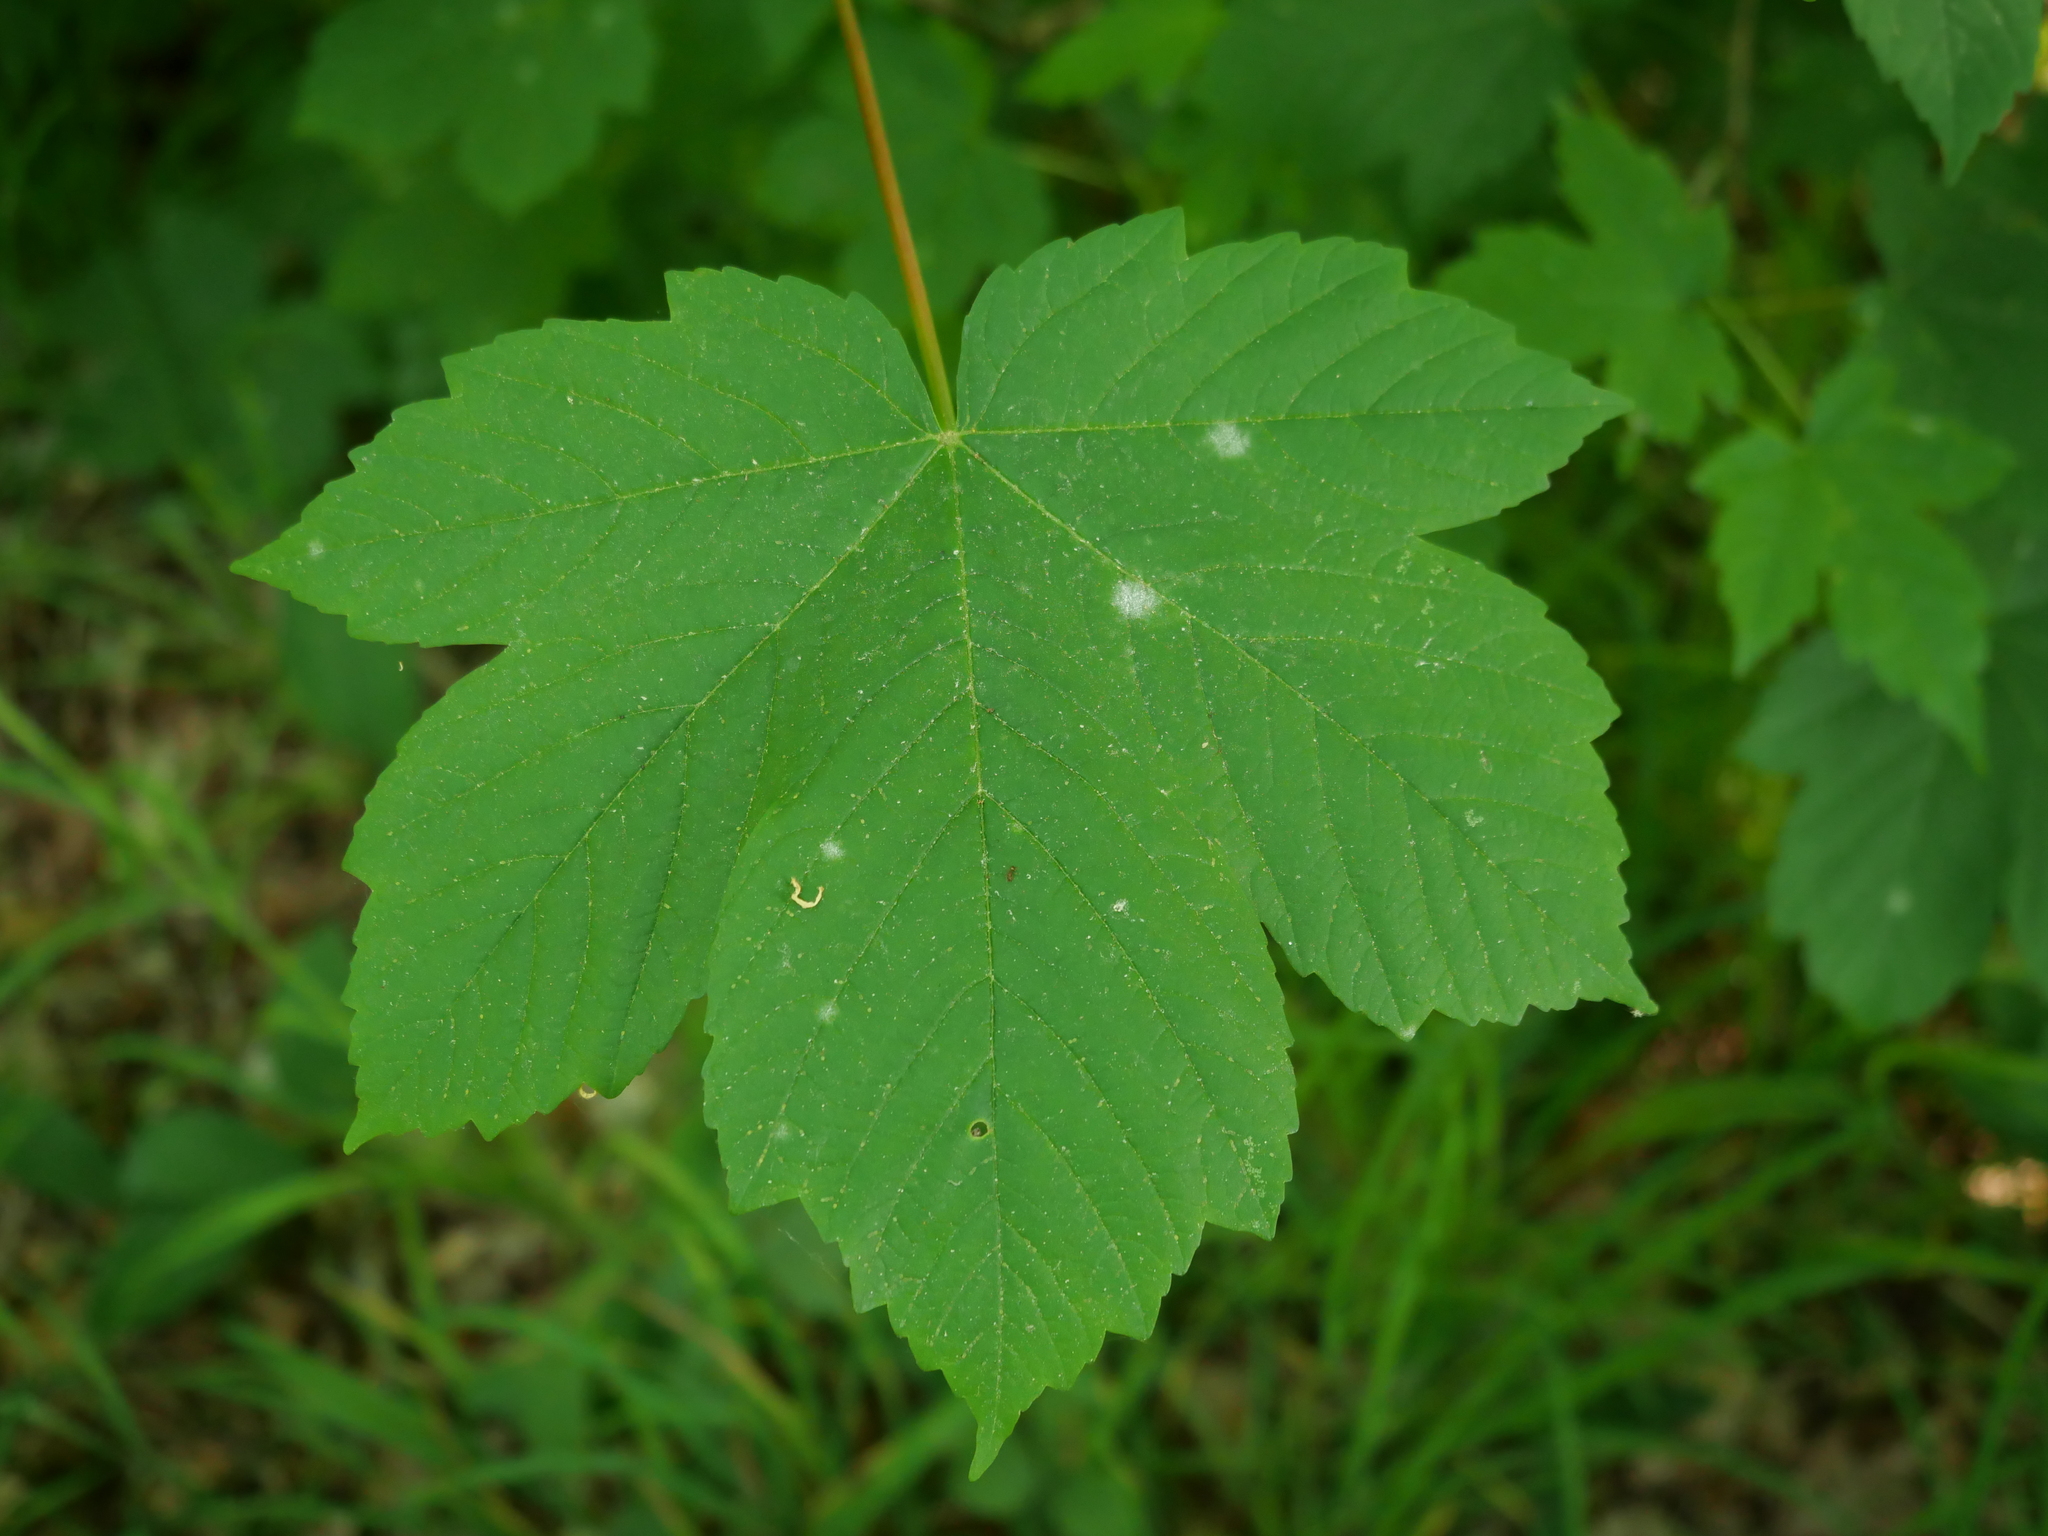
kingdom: Plantae
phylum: Tracheophyta
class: Magnoliopsida
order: Sapindales
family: Sapindaceae
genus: Acer
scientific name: Acer pseudoplatanus
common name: Sycamore
